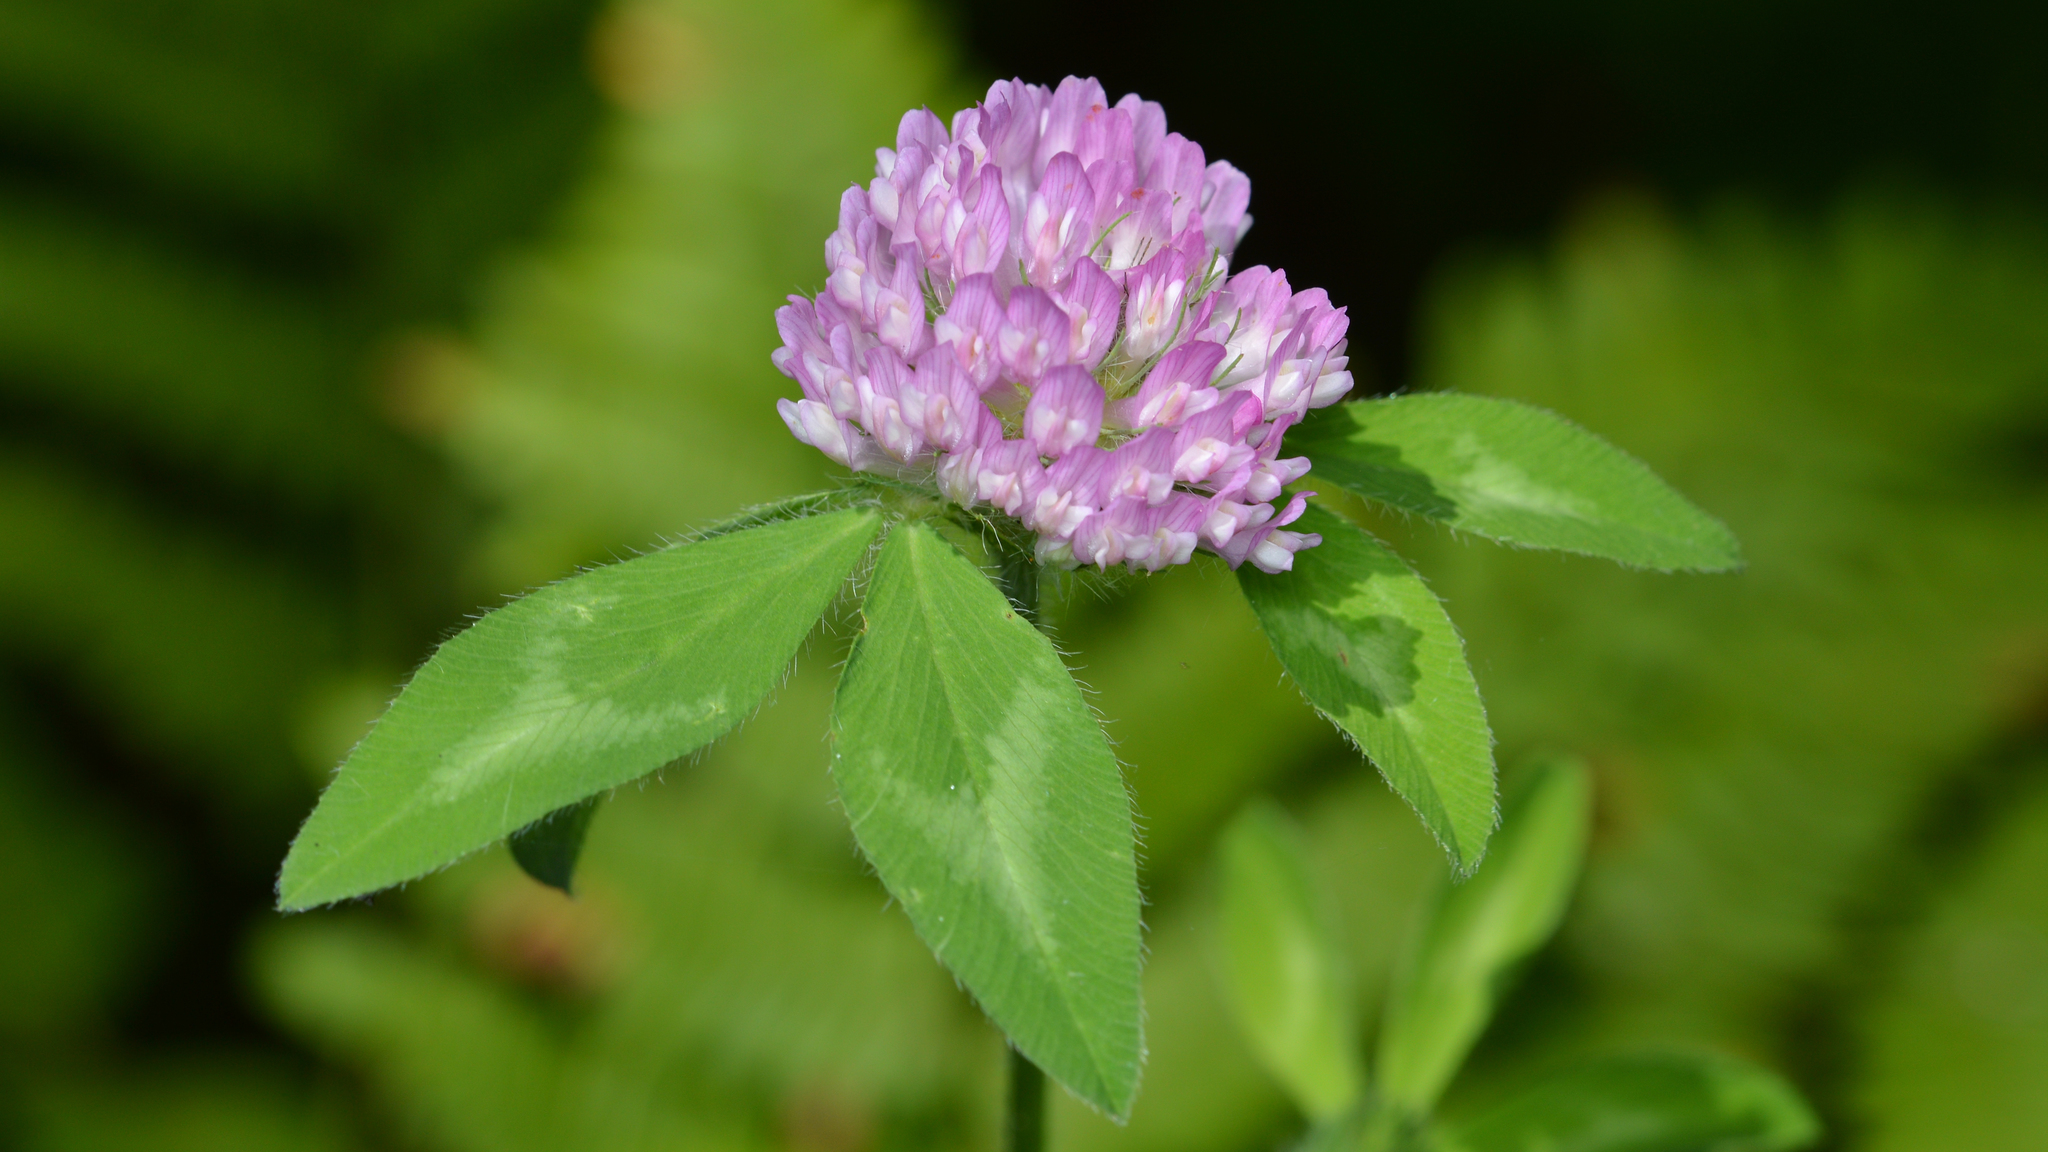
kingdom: Plantae
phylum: Tracheophyta
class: Magnoliopsida
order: Fabales
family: Fabaceae
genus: Trifolium
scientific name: Trifolium pratense
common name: Red clover
